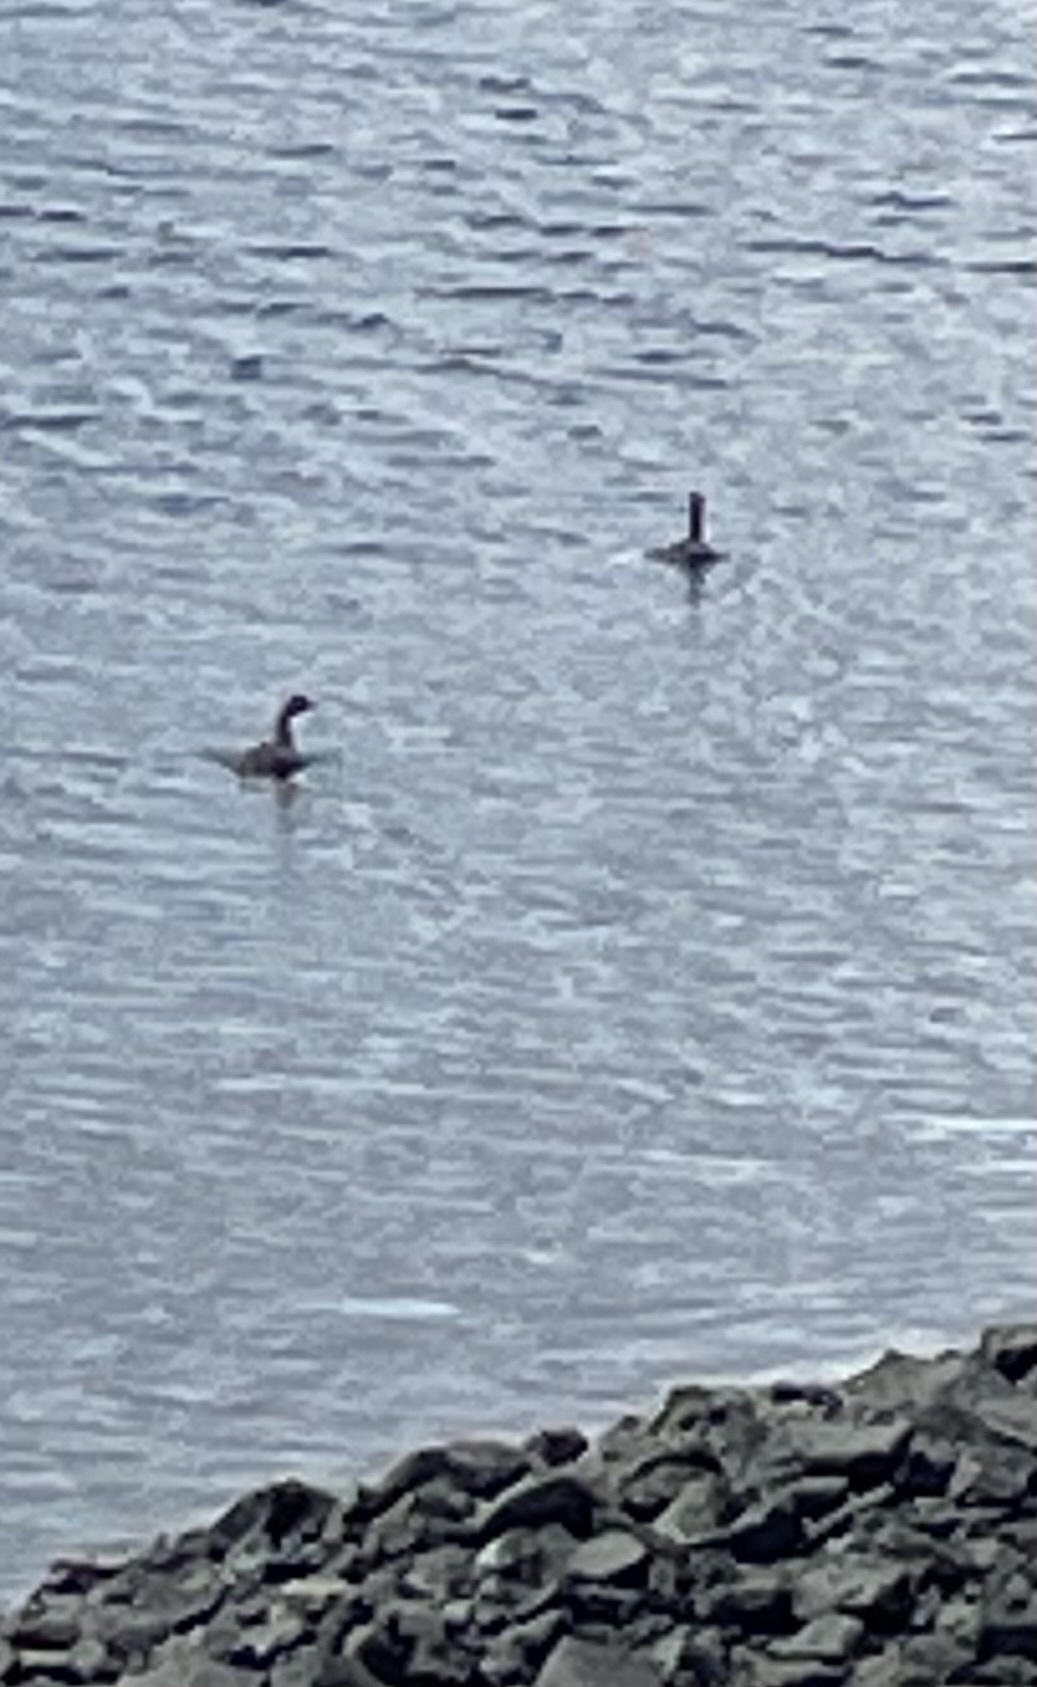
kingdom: Animalia
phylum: Chordata
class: Aves
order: Podicipediformes
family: Podicipedidae
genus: Poliocephalus
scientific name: Poliocephalus rufopectus
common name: New zealand grebe
